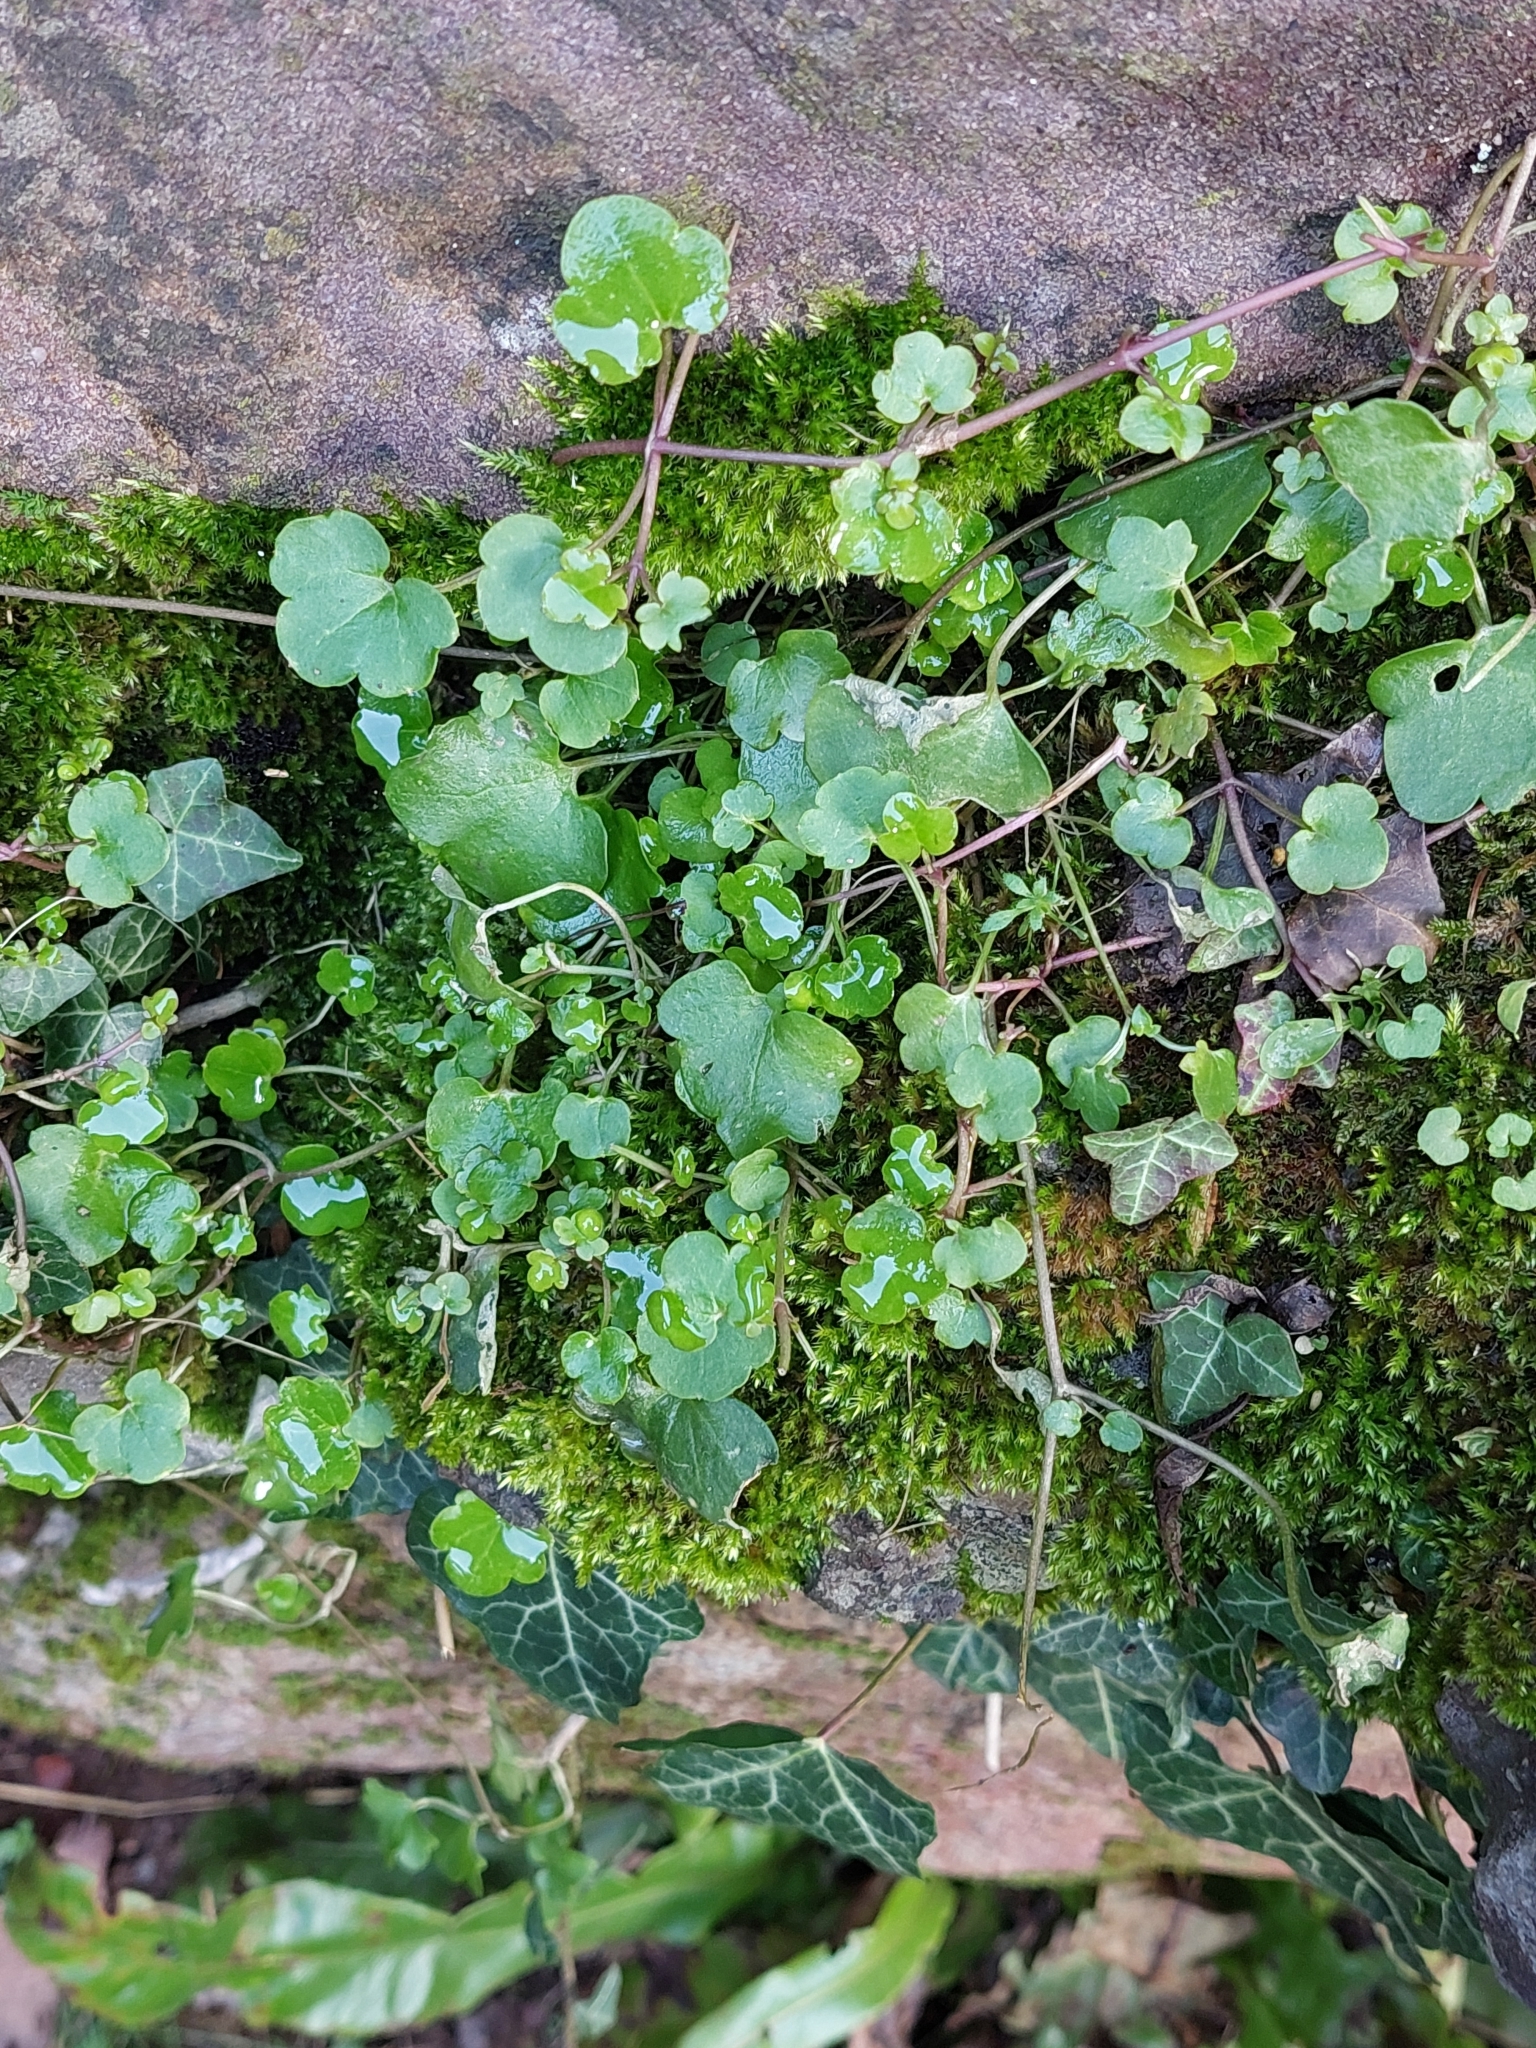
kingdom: Plantae
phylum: Tracheophyta
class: Magnoliopsida
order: Lamiales
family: Plantaginaceae
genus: Cymbalaria
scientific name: Cymbalaria muralis
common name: Ivy-leaved toadflax
